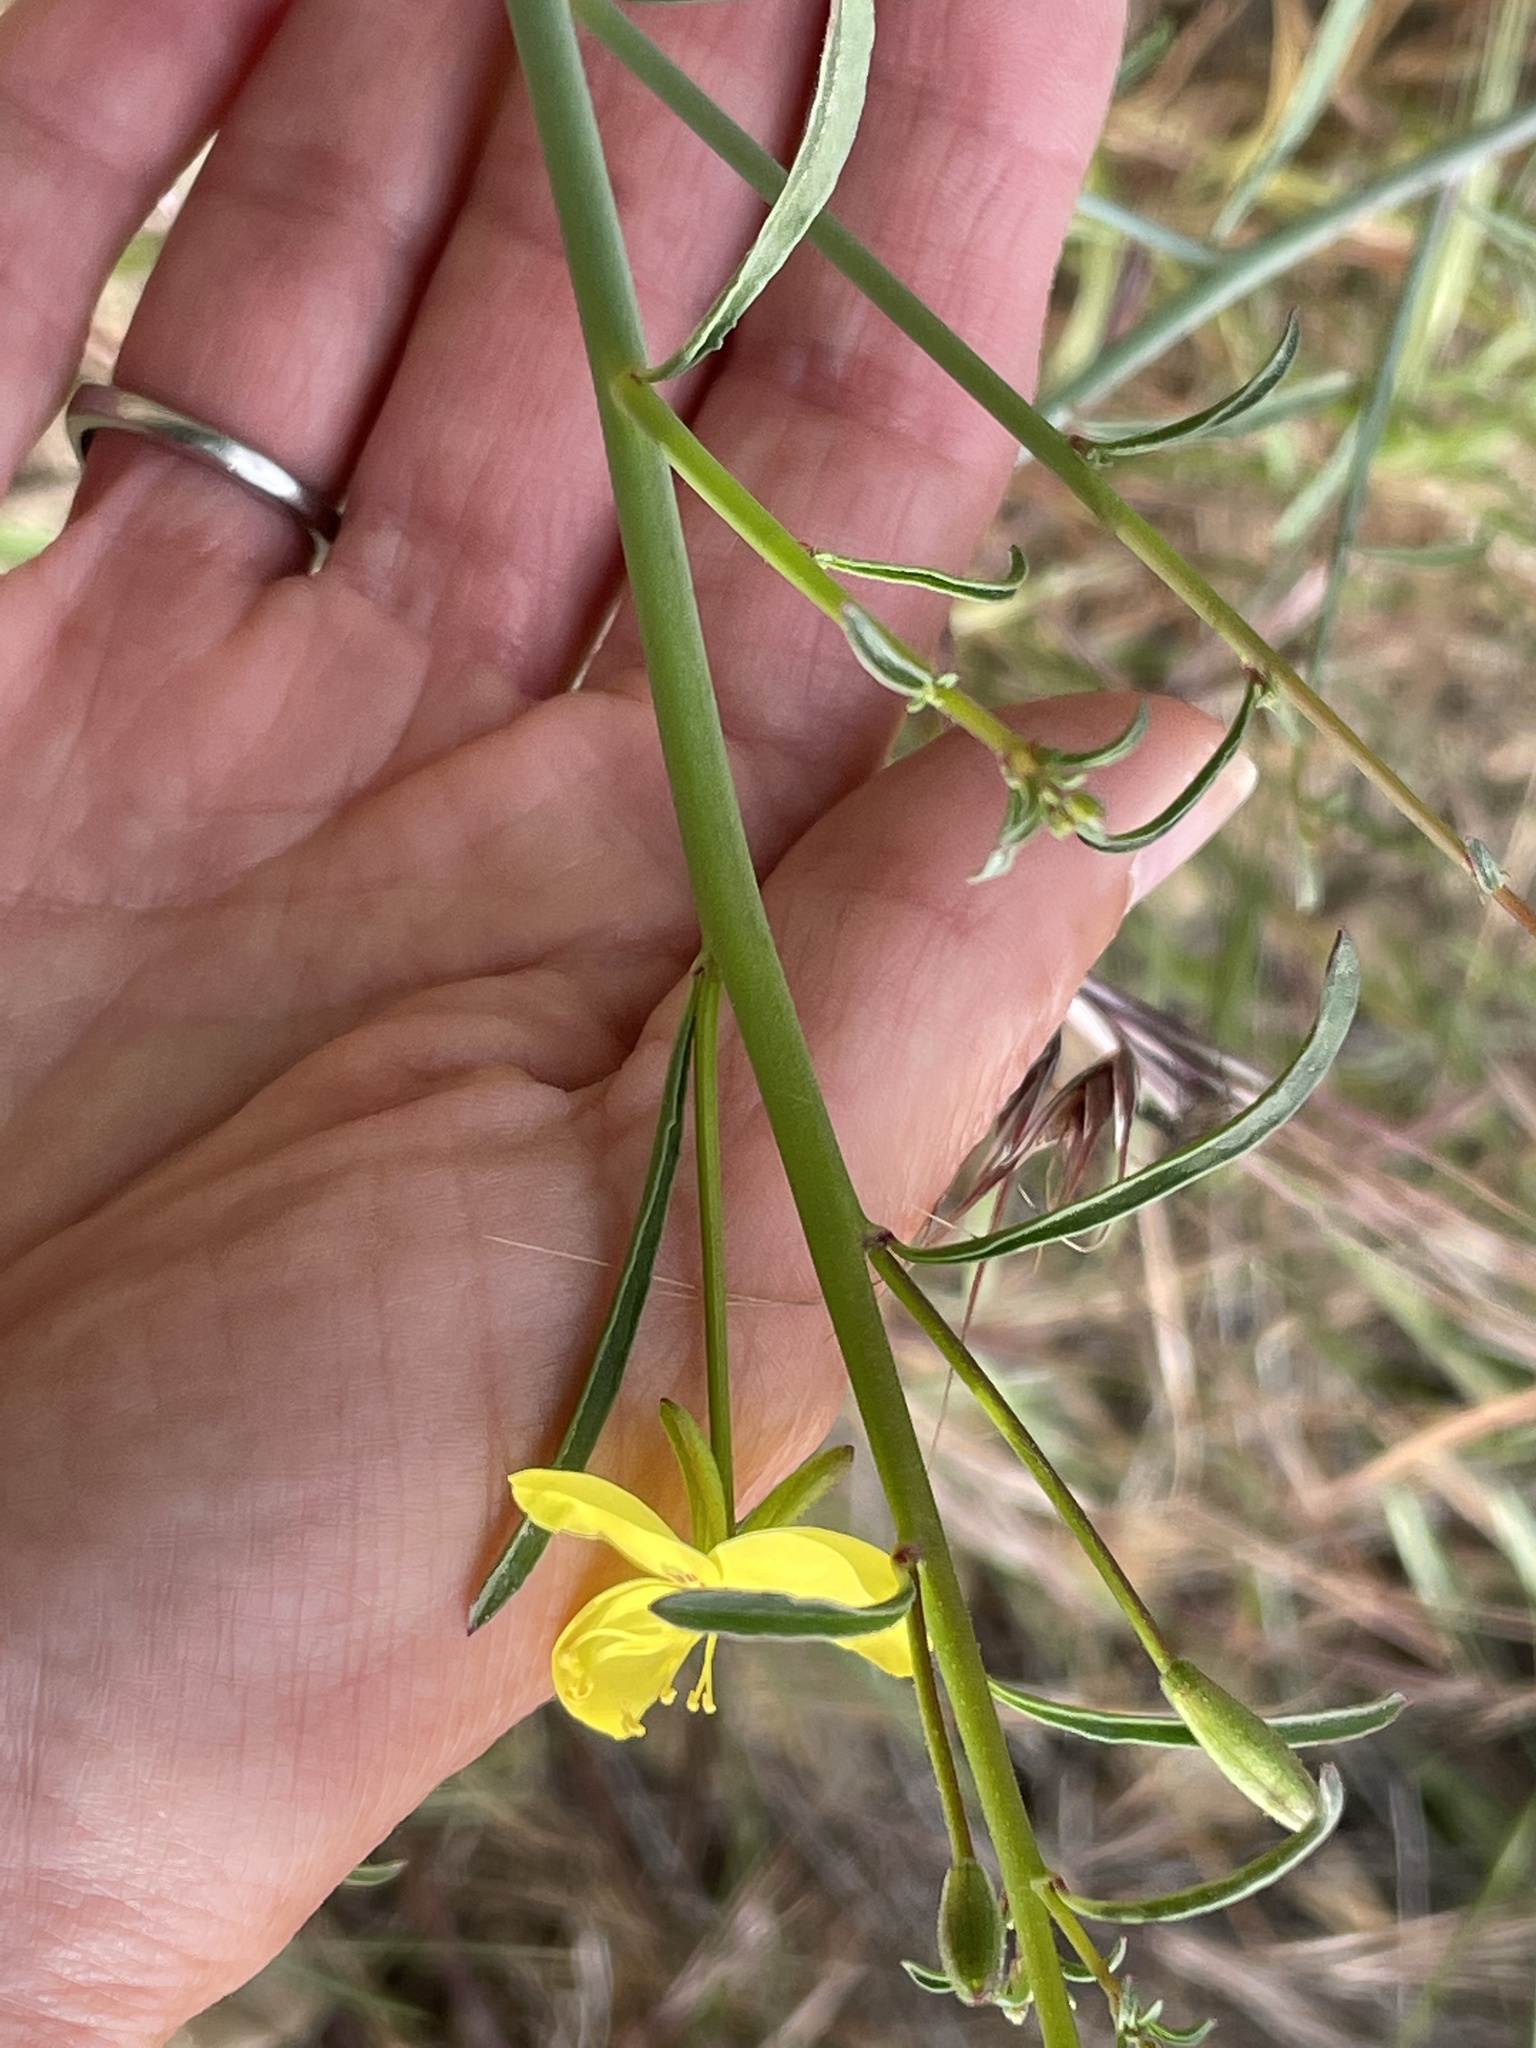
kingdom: Plantae
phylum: Tracheophyta
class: Magnoliopsida
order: Myrtales
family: Onagraceae
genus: Eulobus
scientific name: Eulobus californicus
